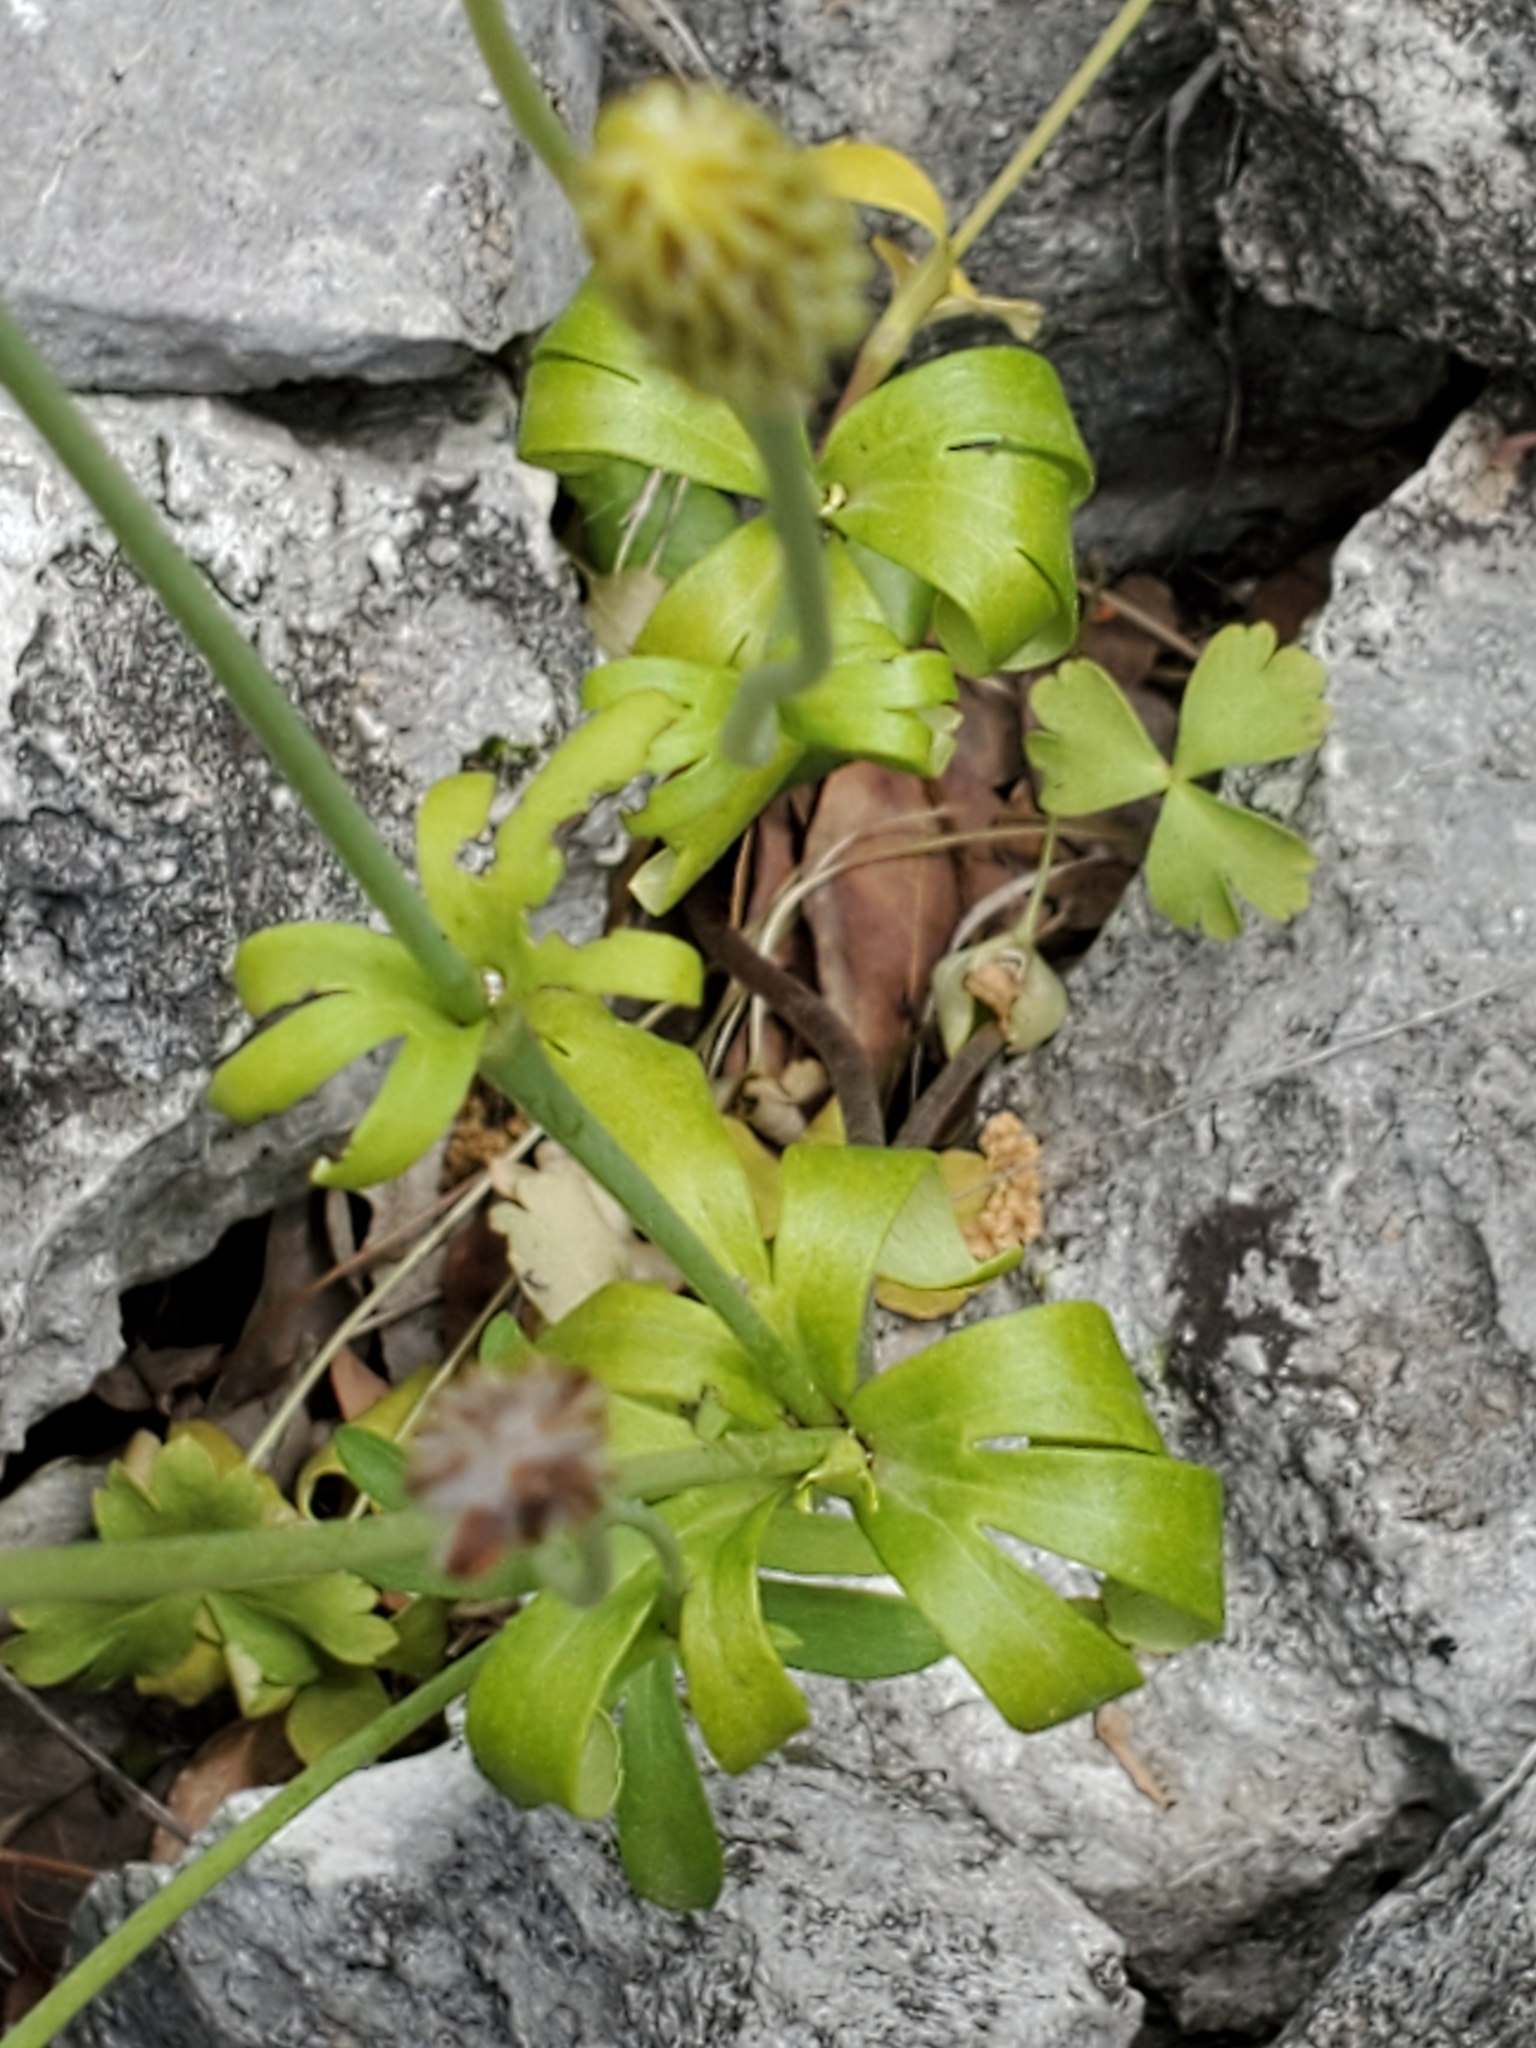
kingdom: Plantae
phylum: Tracheophyta
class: Magnoliopsida
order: Ranunculales
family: Ranunculaceae
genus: Anemone
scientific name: Anemone edwardsiana
